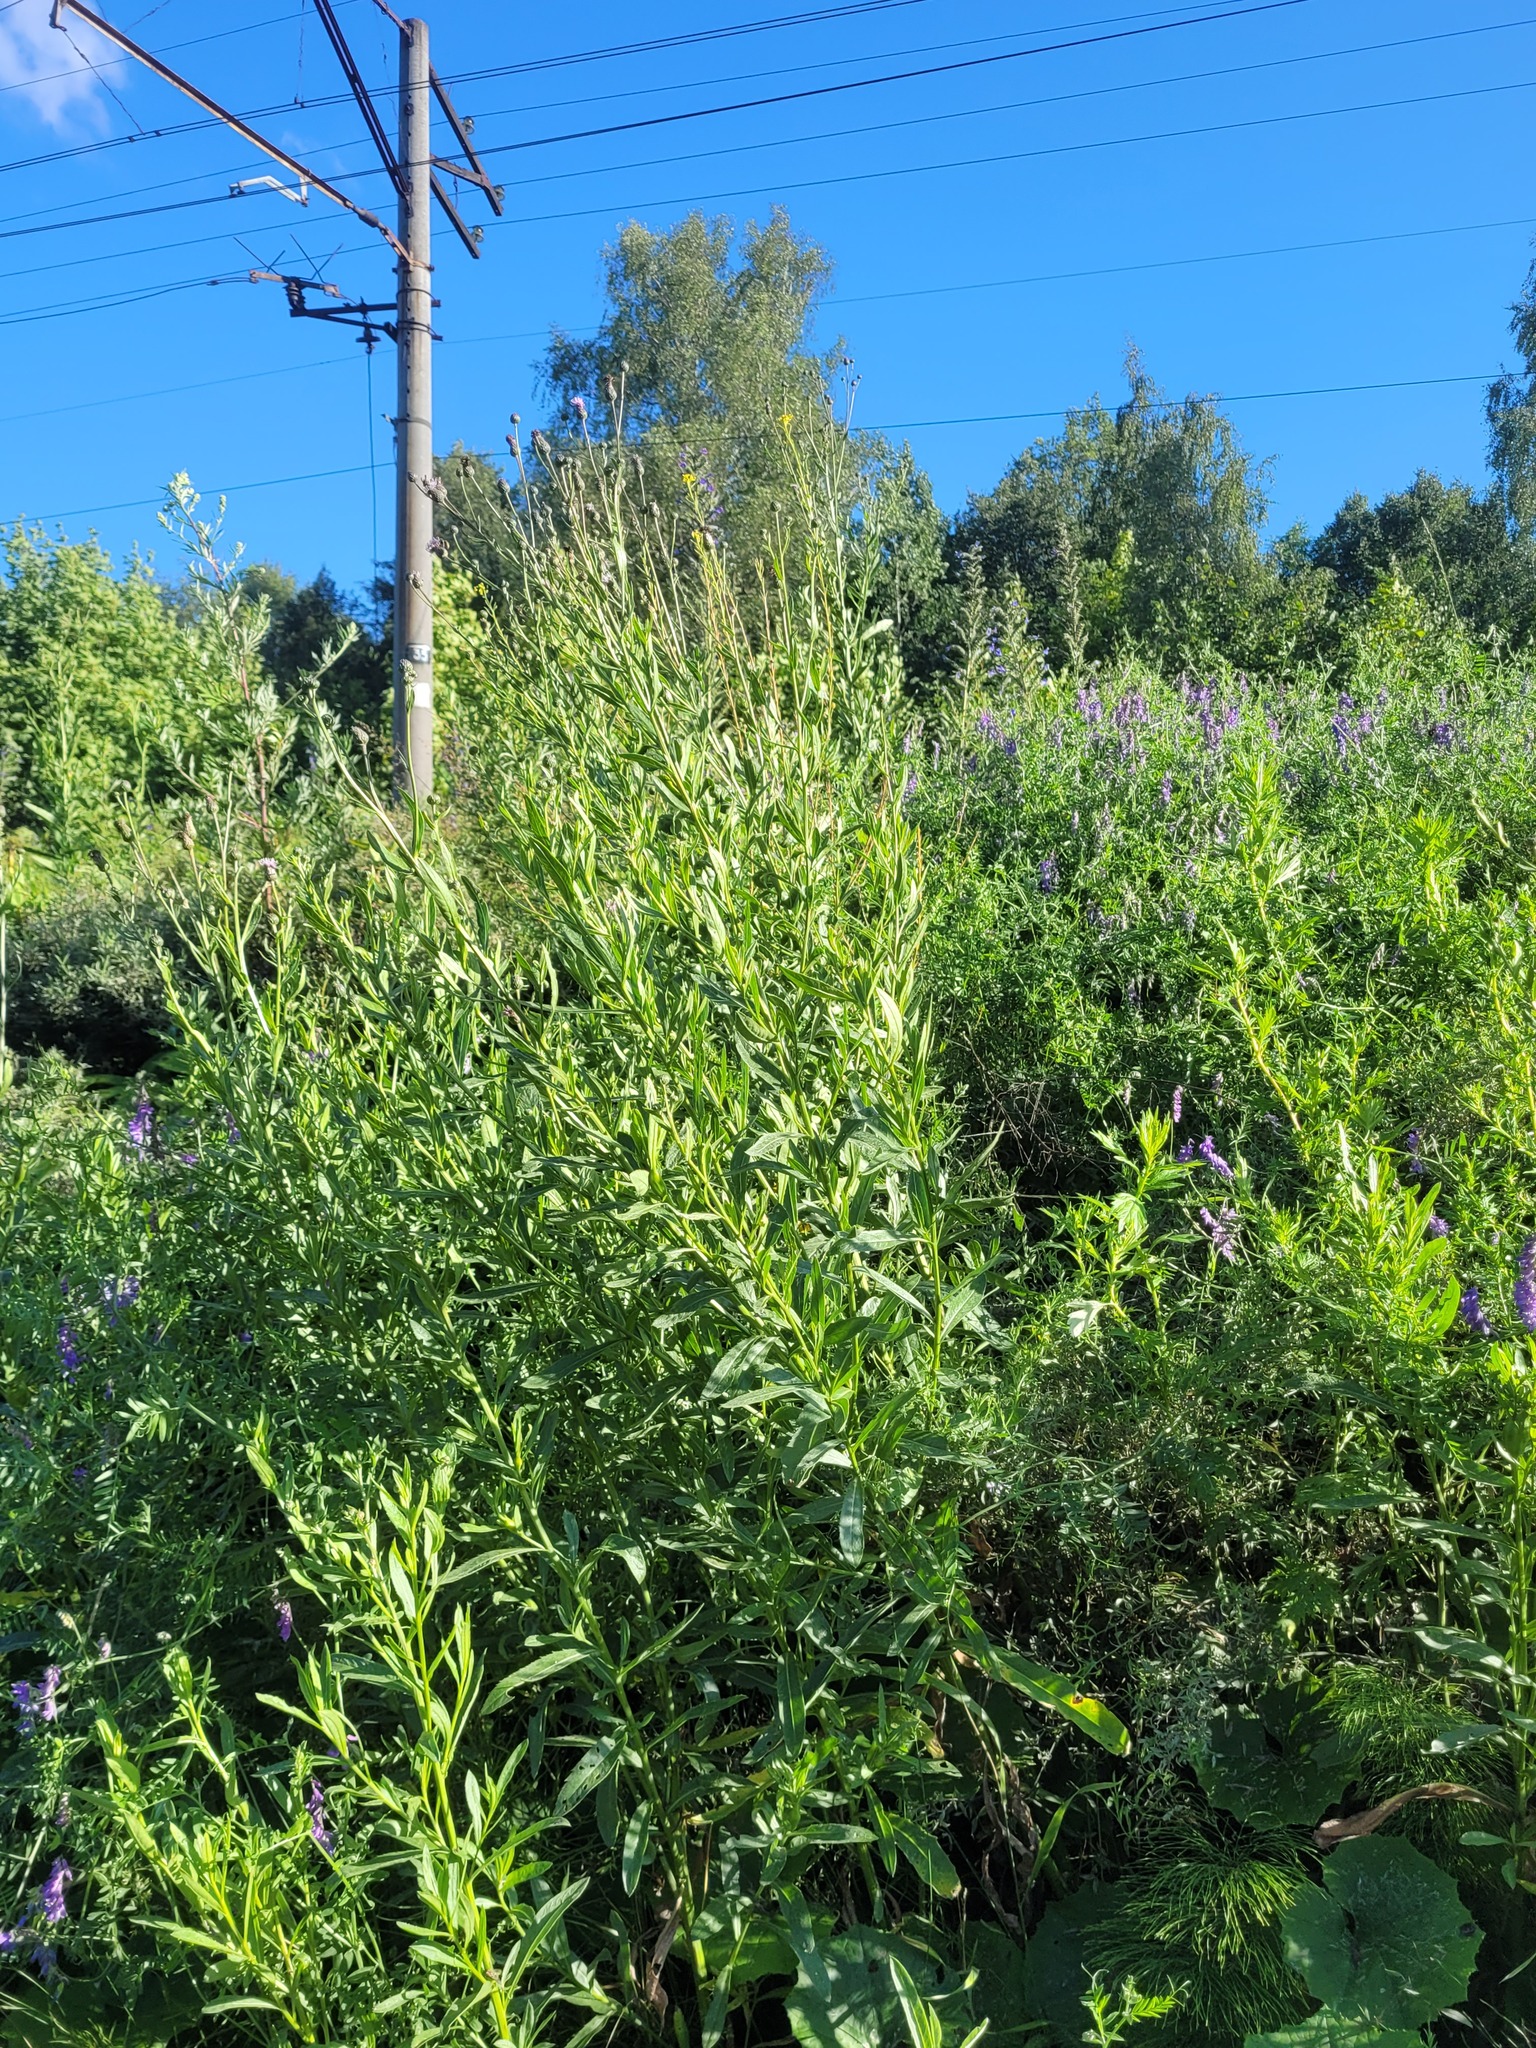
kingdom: Plantae
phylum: Tracheophyta
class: Magnoliopsida
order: Asterales
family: Asteraceae
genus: Cirsium
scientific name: Cirsium arvense
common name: Creeping thistle
